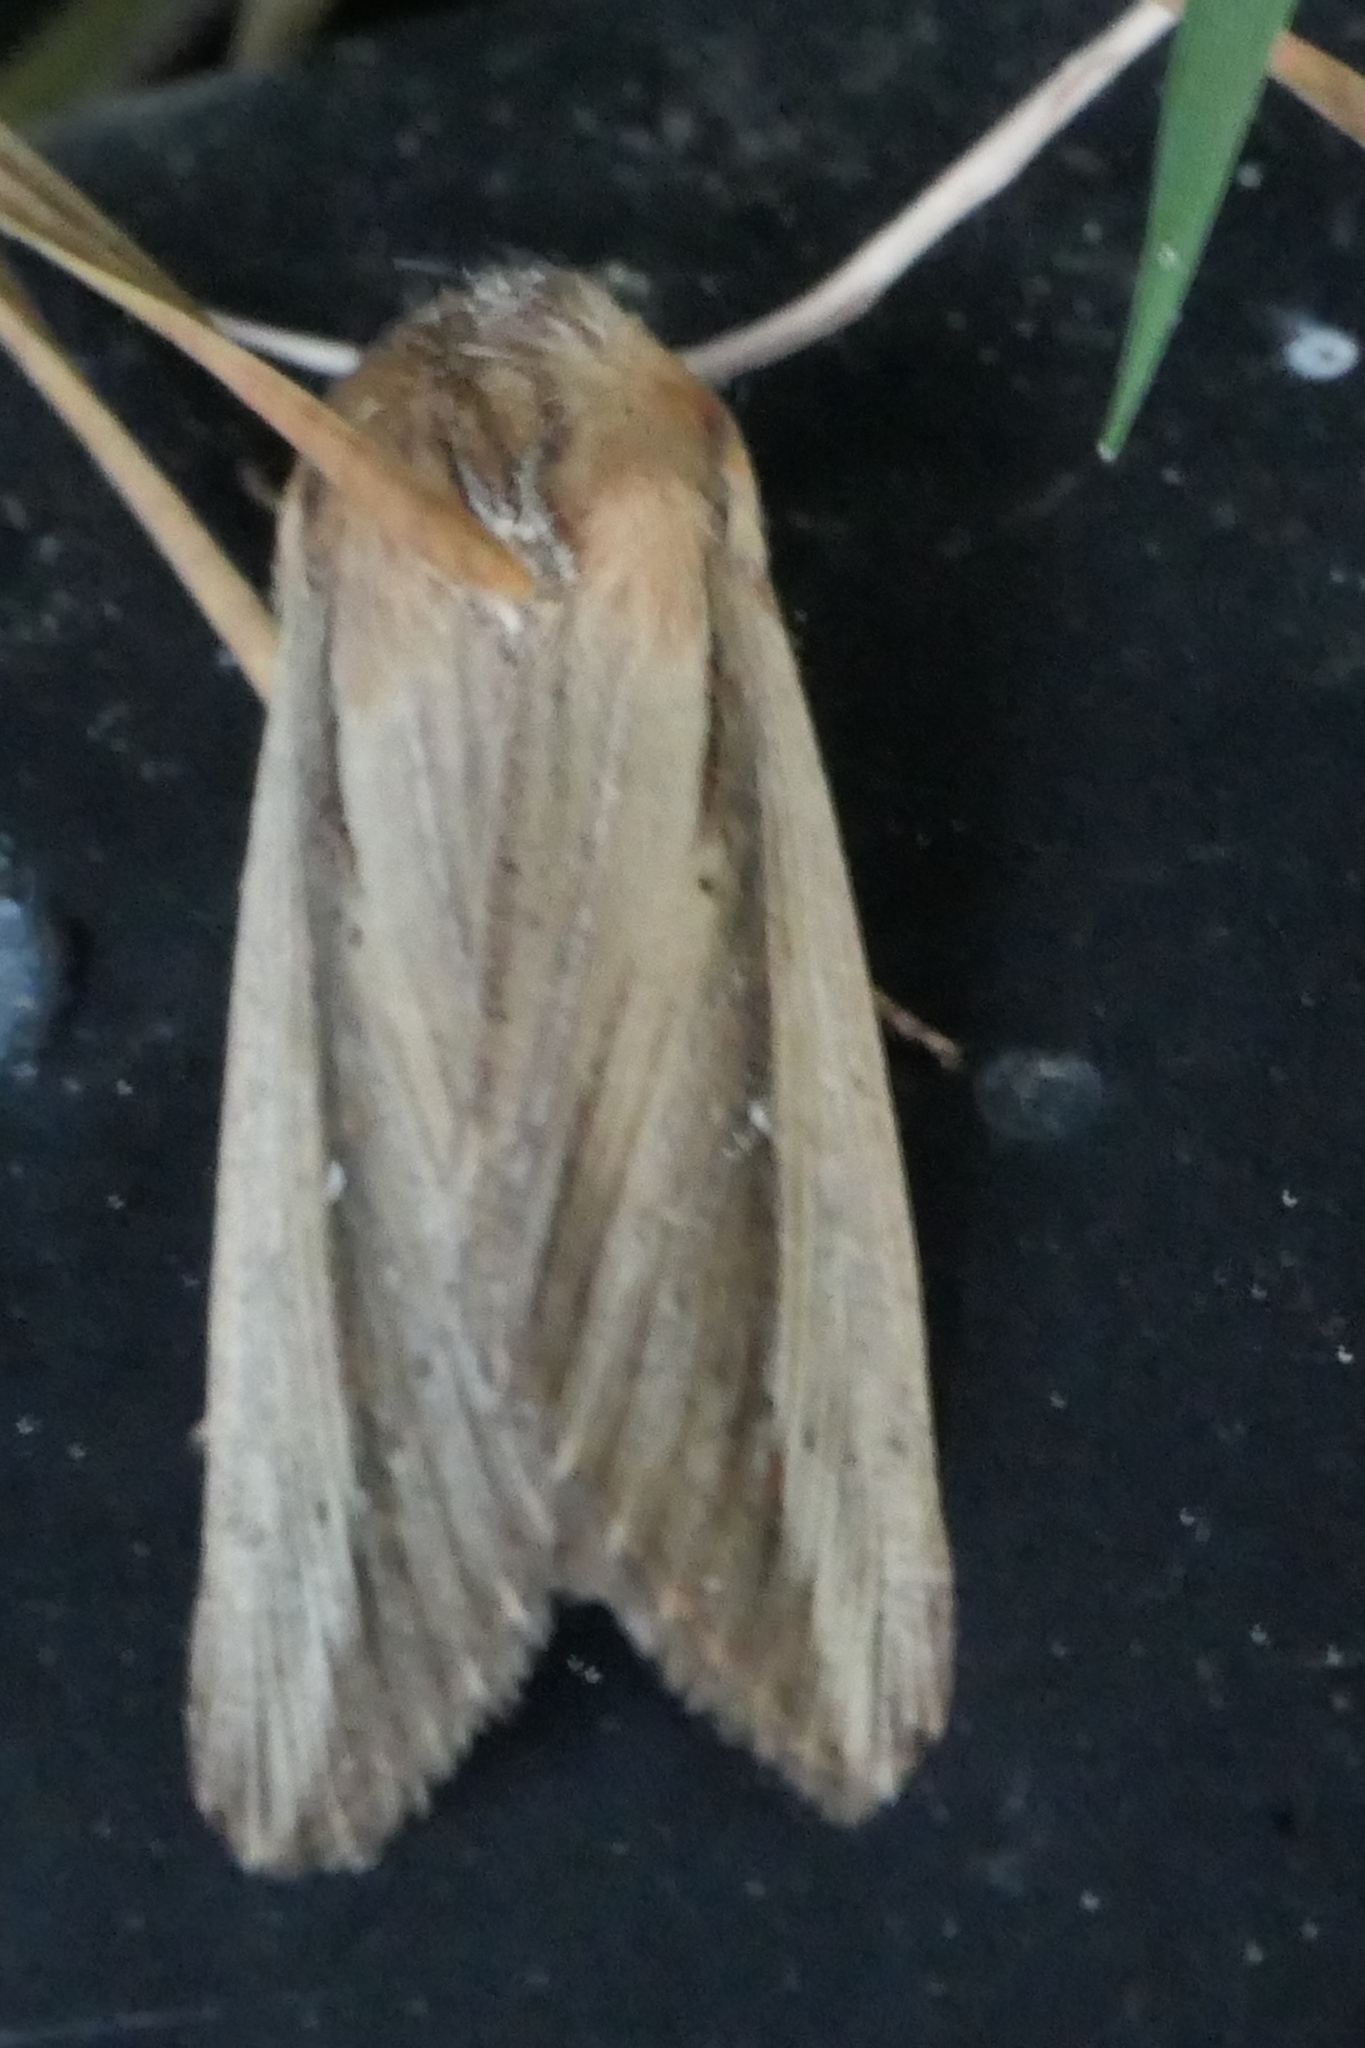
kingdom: Animalia
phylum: Arthropoda
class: Insecta
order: Lepidoptera
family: Noctuidae
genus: Leucania
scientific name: Leucania stenographa
